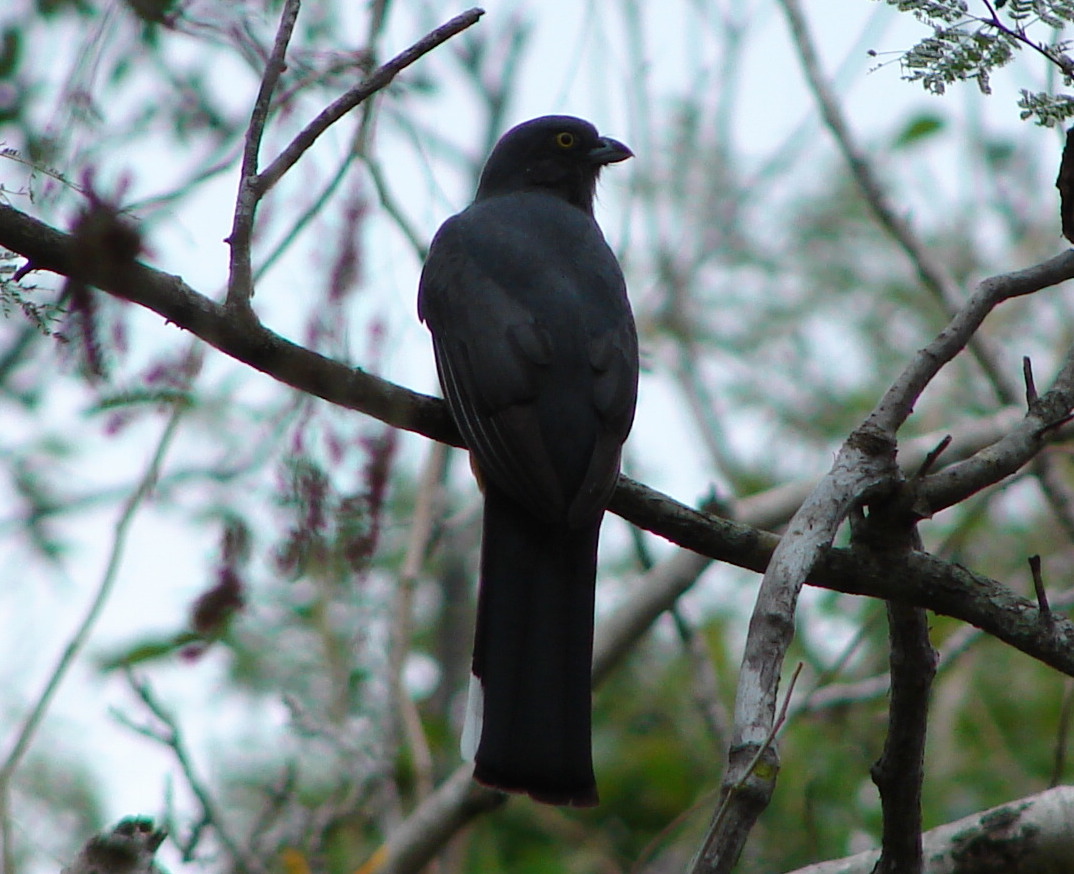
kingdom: Animalia
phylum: Chordata
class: Aves
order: Trogoniformes
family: Trogonidae
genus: Trogon
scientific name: Trogon citreolus
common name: Citreoline trogon
